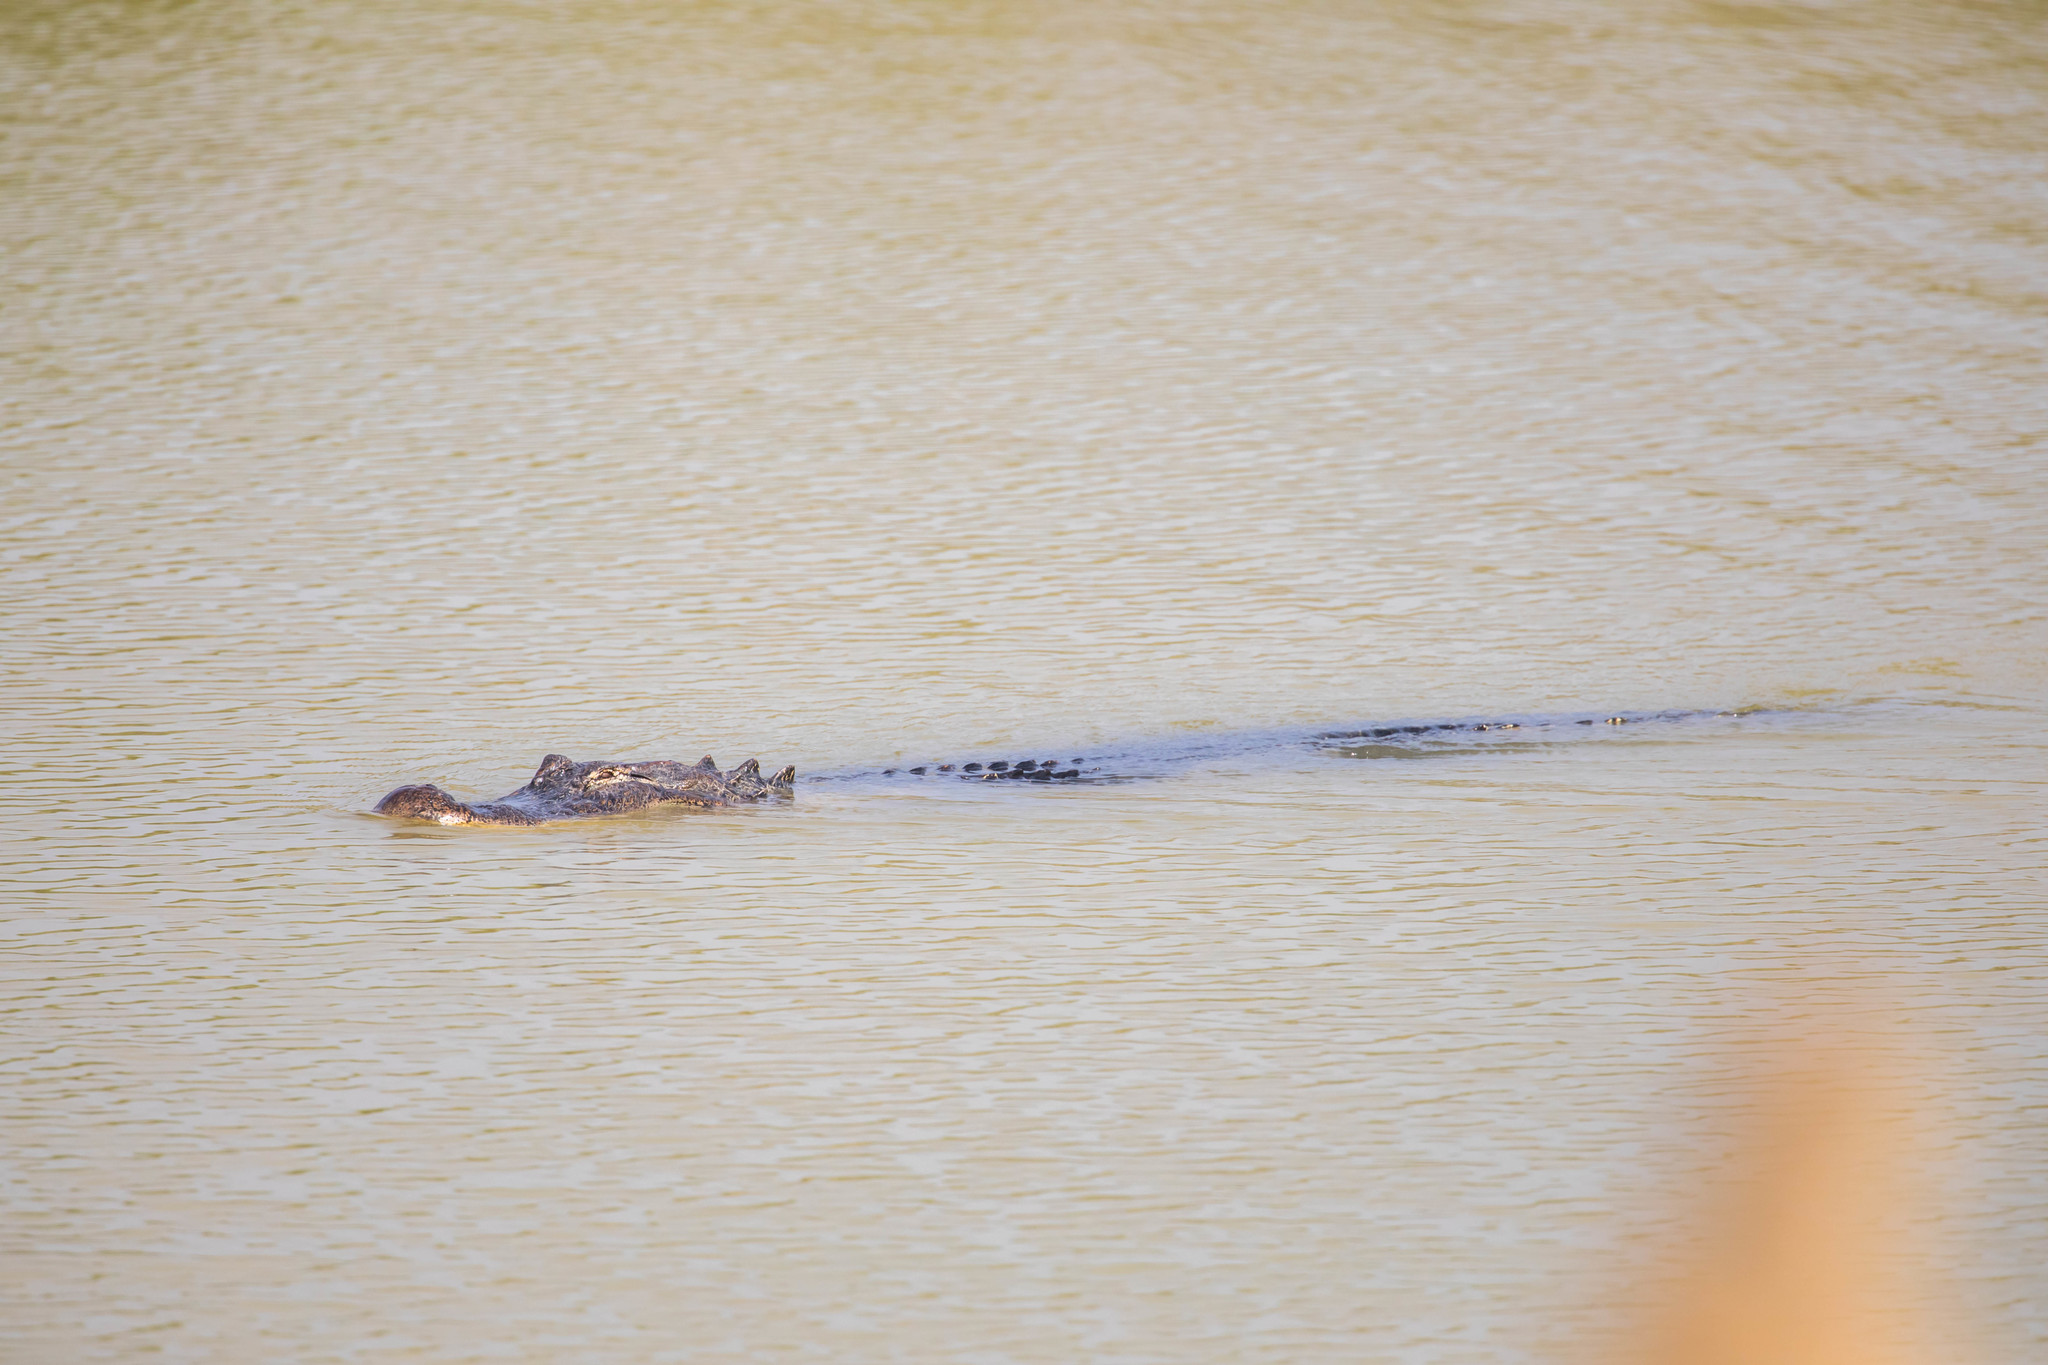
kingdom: Animalia
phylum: Chordata
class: Crocodylia
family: Alligatoridae
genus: Alligator
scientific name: Alligator mississippiensis
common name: American alligator
